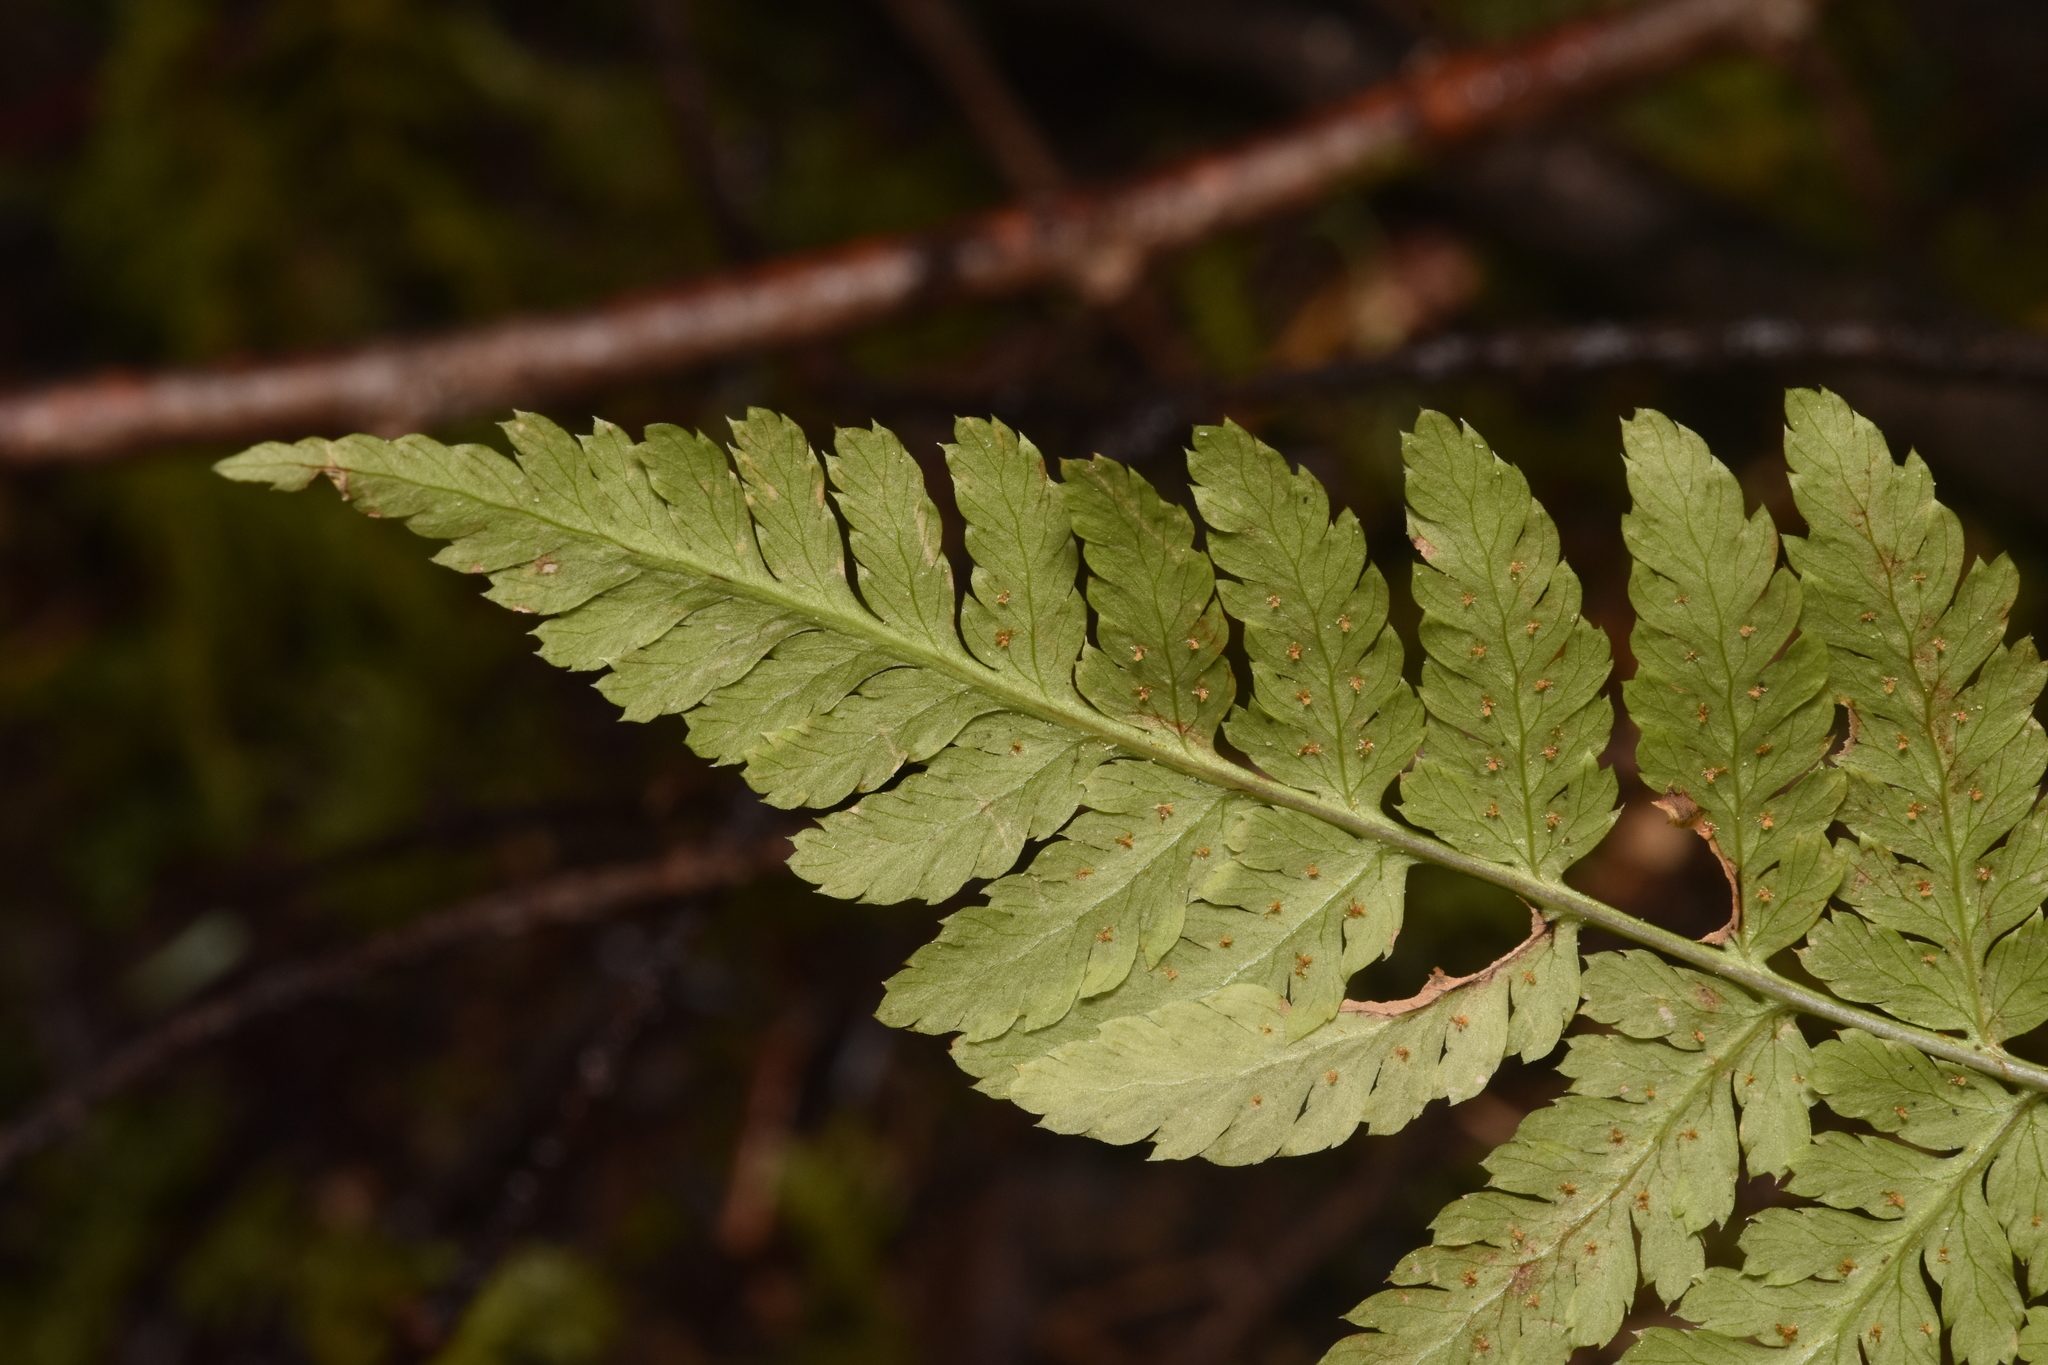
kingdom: Plantae
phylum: Tracheophyta
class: Polypodiopsida
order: Polypodiales
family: Dryopteridaceae
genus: Dryopteris
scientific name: Dryopteris expansa
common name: Northern buckler fern
